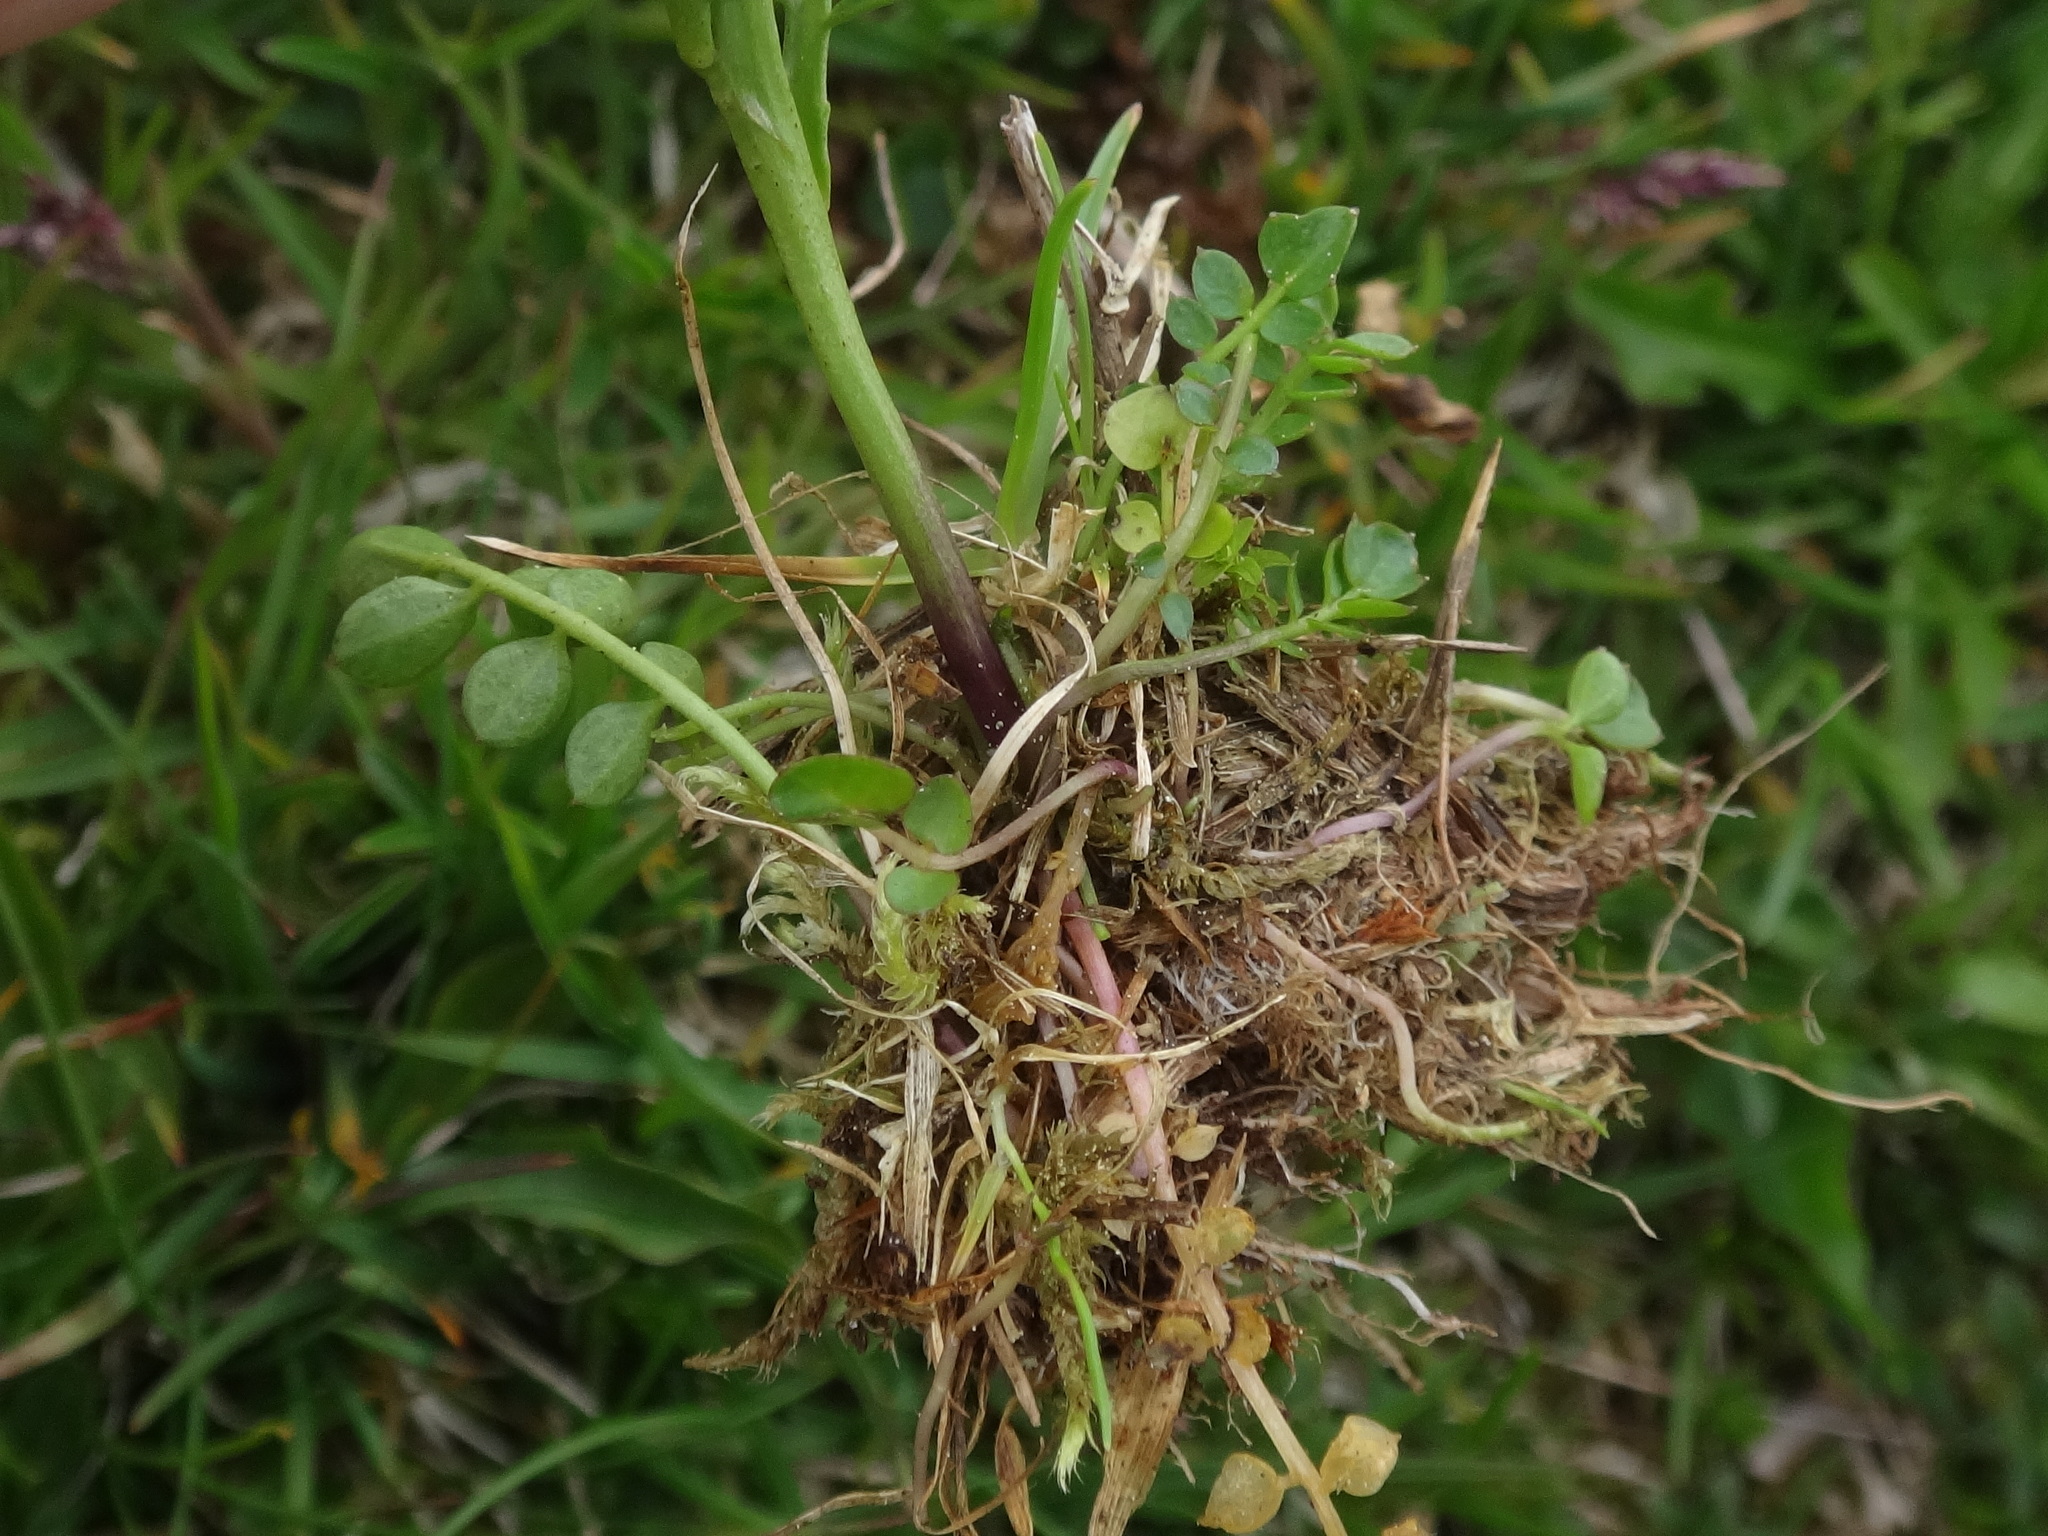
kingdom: Plantae
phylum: Tracheophyta
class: Magnoliopsida
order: Brassicales
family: Brassicaceae
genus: Cardamine
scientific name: Cardamine crassifolia
